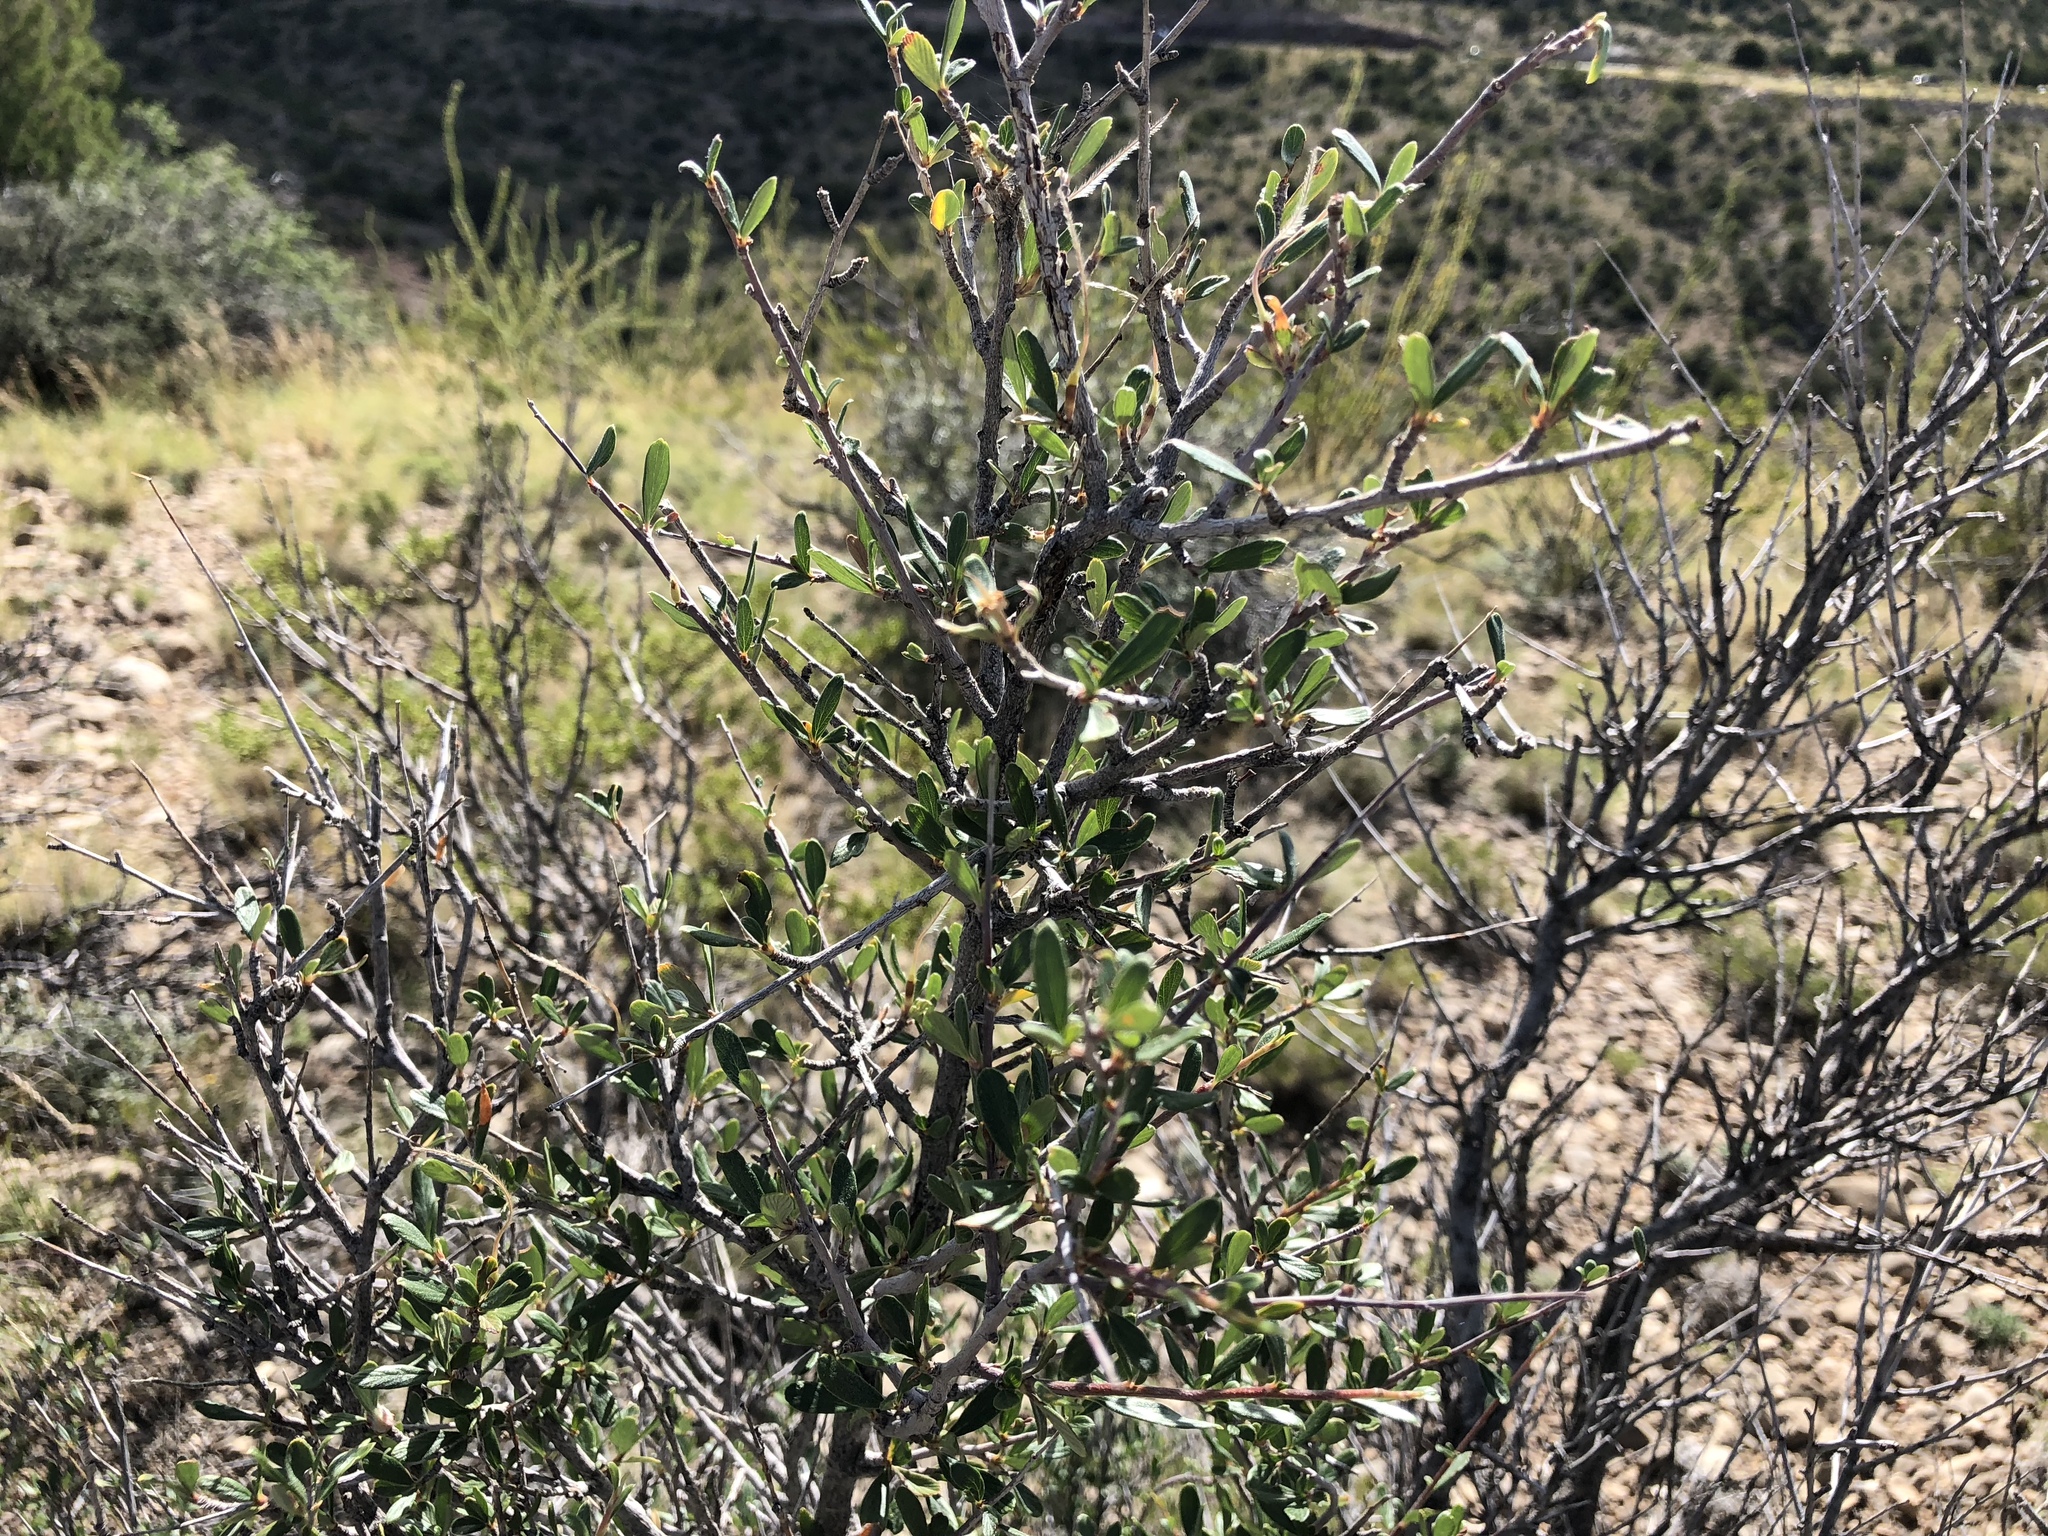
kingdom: Plantae
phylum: Tracheophyta
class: Magnoliopsida
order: Rosales
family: Rosaceae
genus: Cercocarpus
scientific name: Cercocarpus breviflorus
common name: Wright's mountain-mahogany
